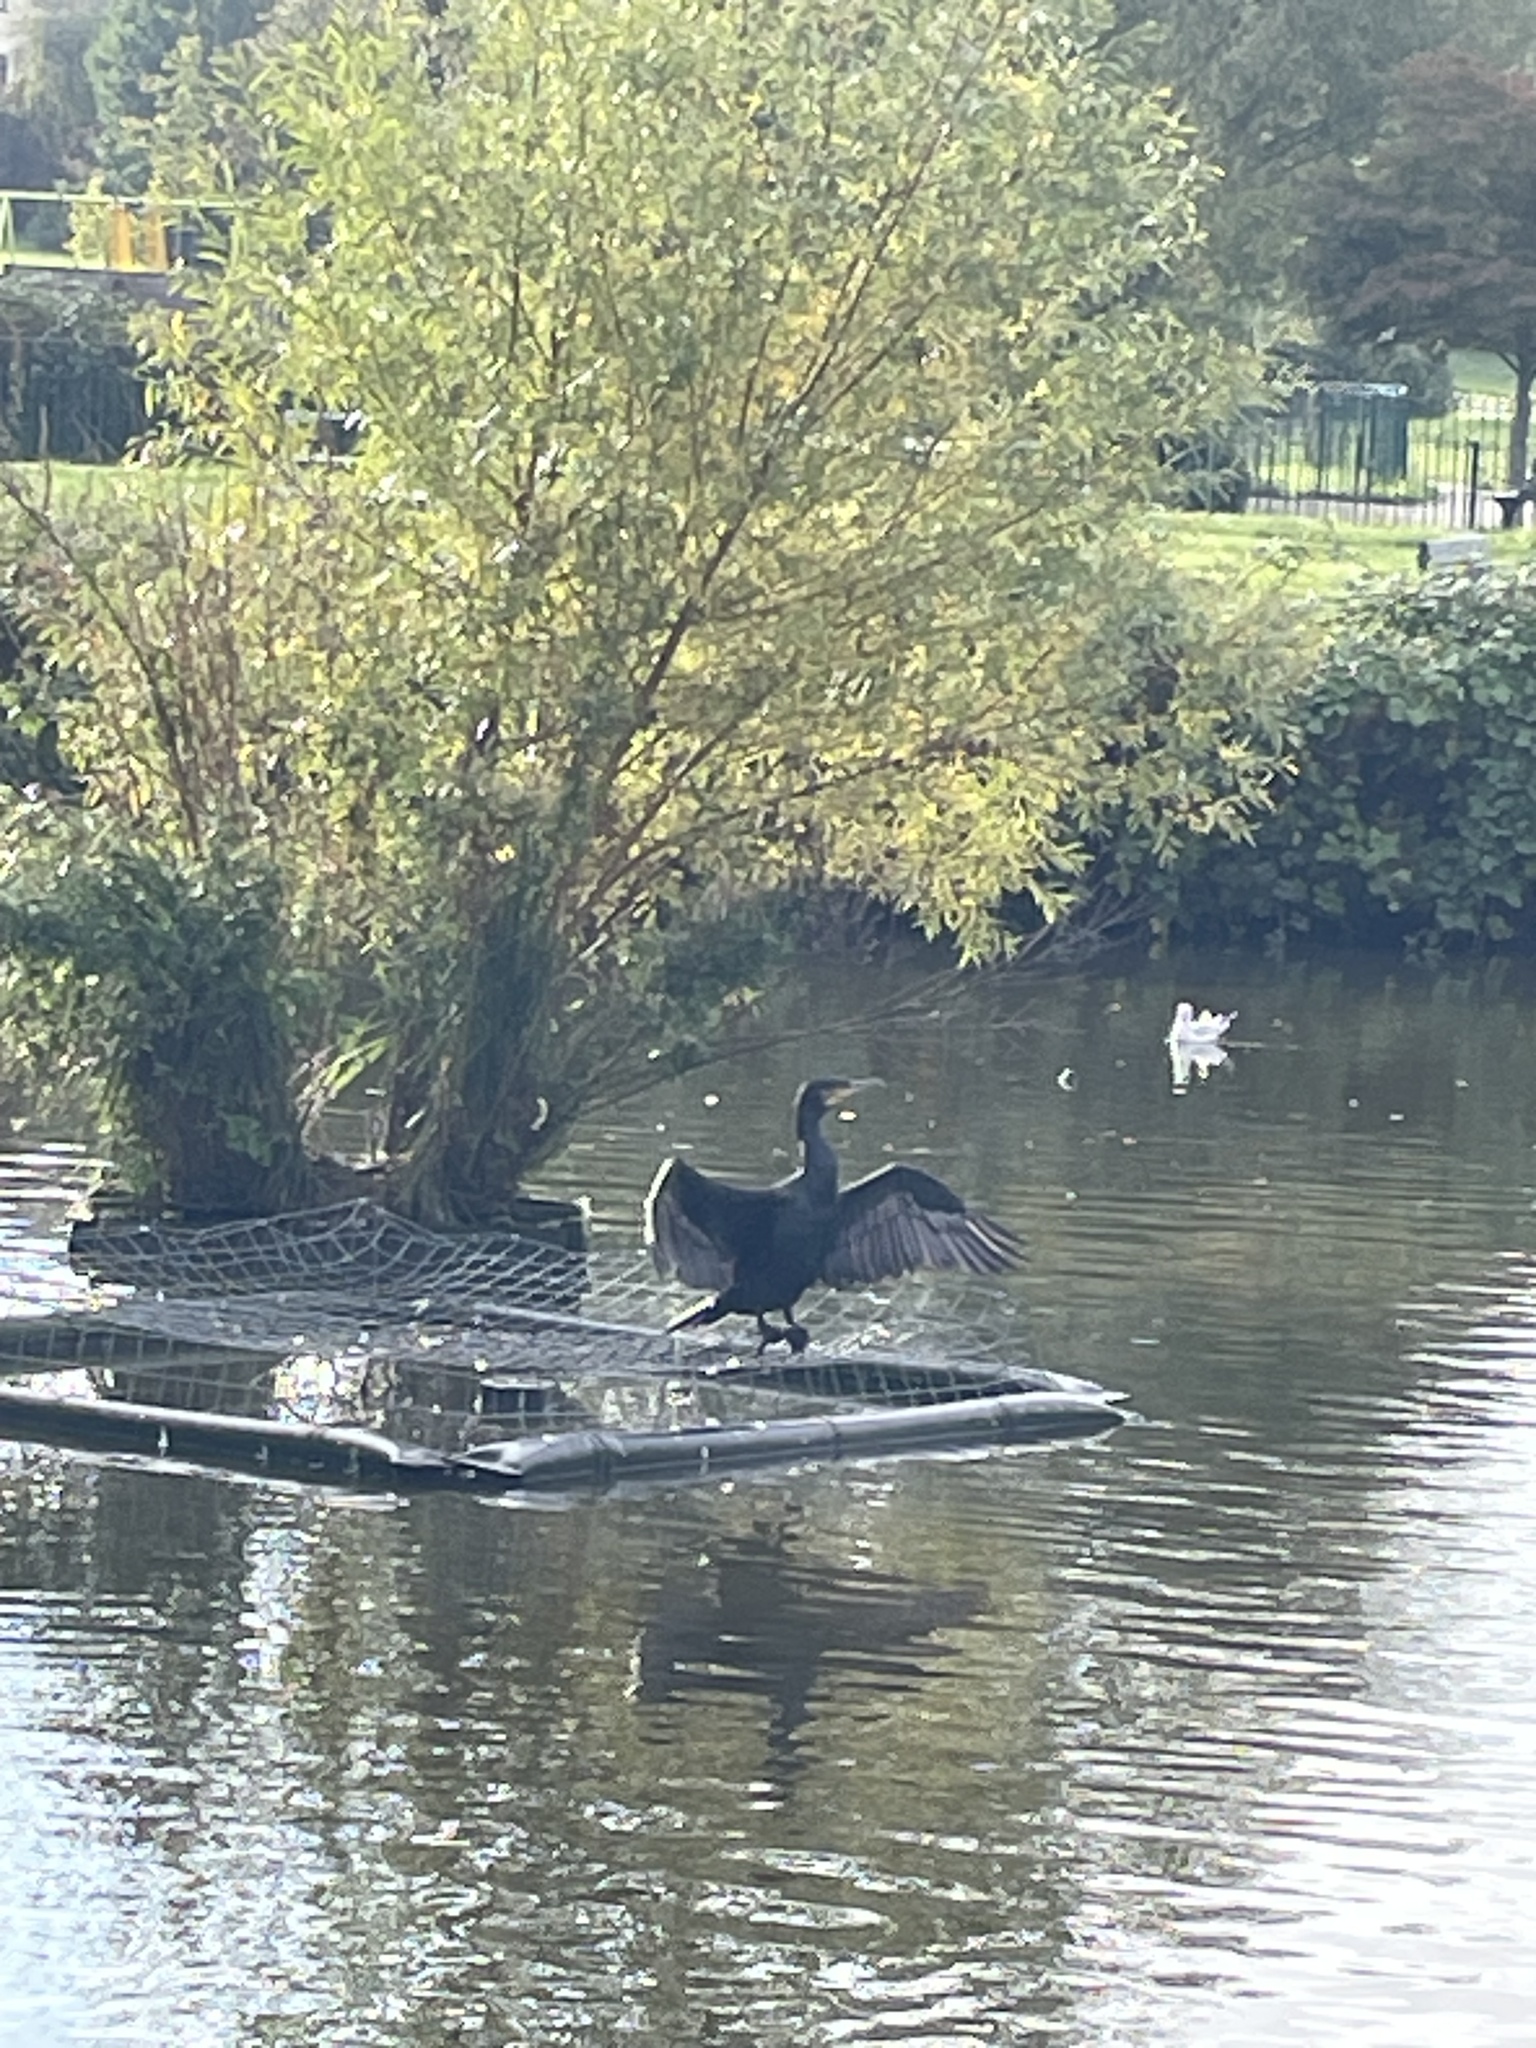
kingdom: Animalia
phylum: Chordata
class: Aves
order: Suliformes
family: Phalacrocoracidae
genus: Phalacrocorax
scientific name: Phalacrocorax carbo
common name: Great cormorant
